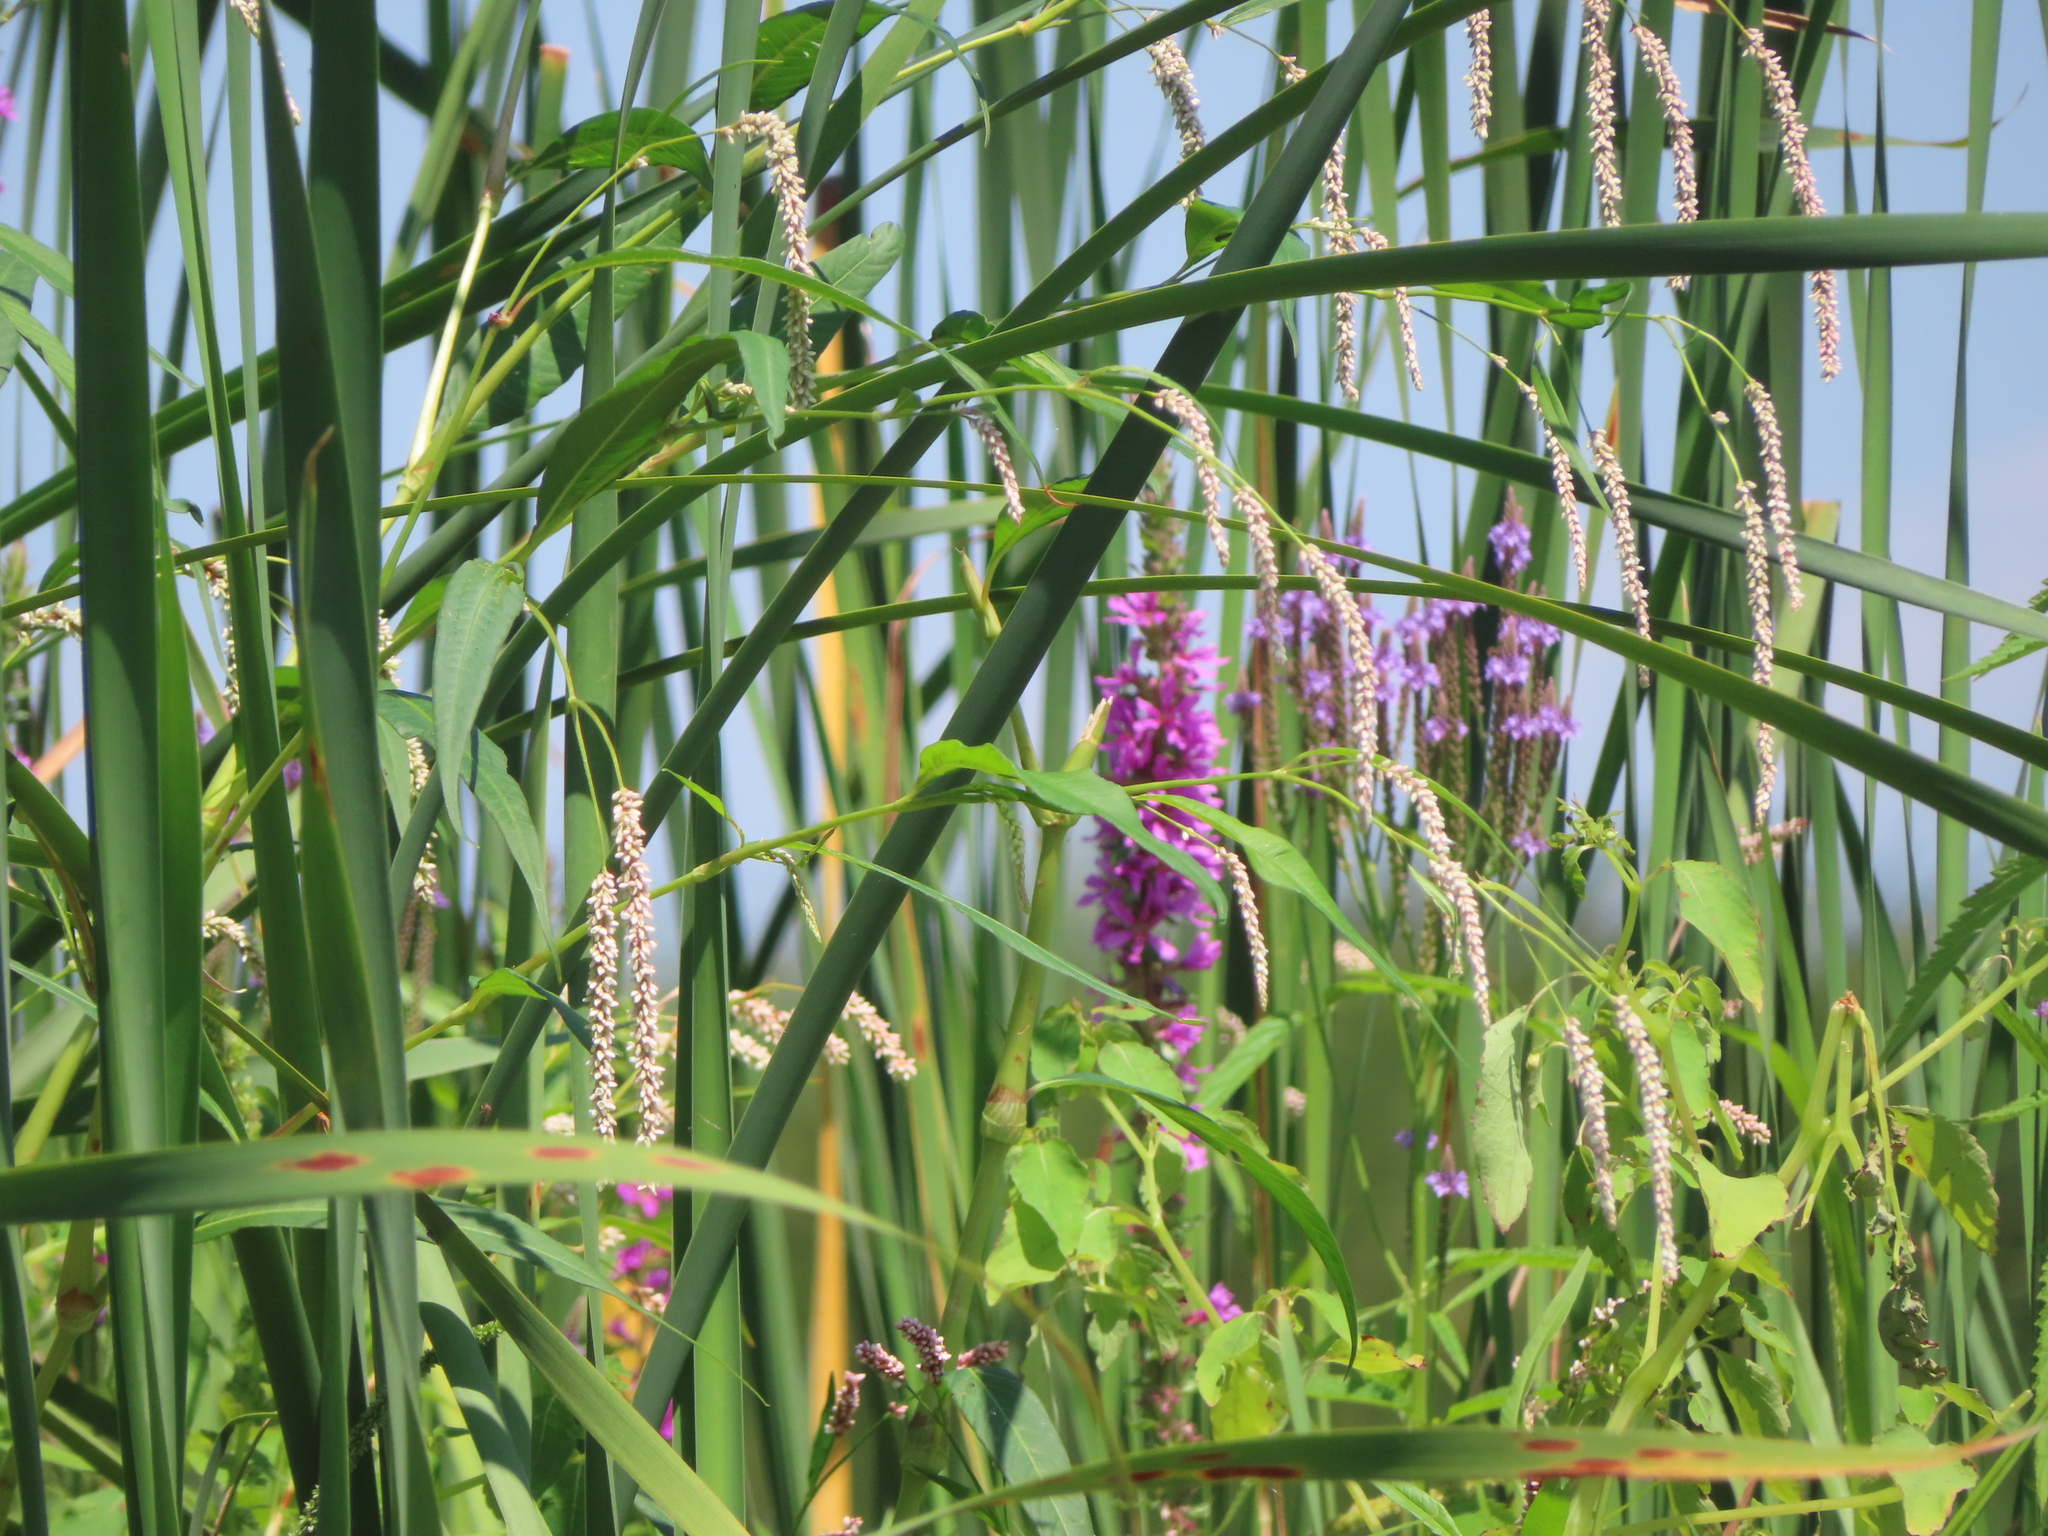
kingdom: Plantae
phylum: Tracheophyta
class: Magnoliopsida
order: Myrtales
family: Lythraceae
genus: Lythrum
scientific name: Lythrum salicaria
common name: Purple loosestrife
